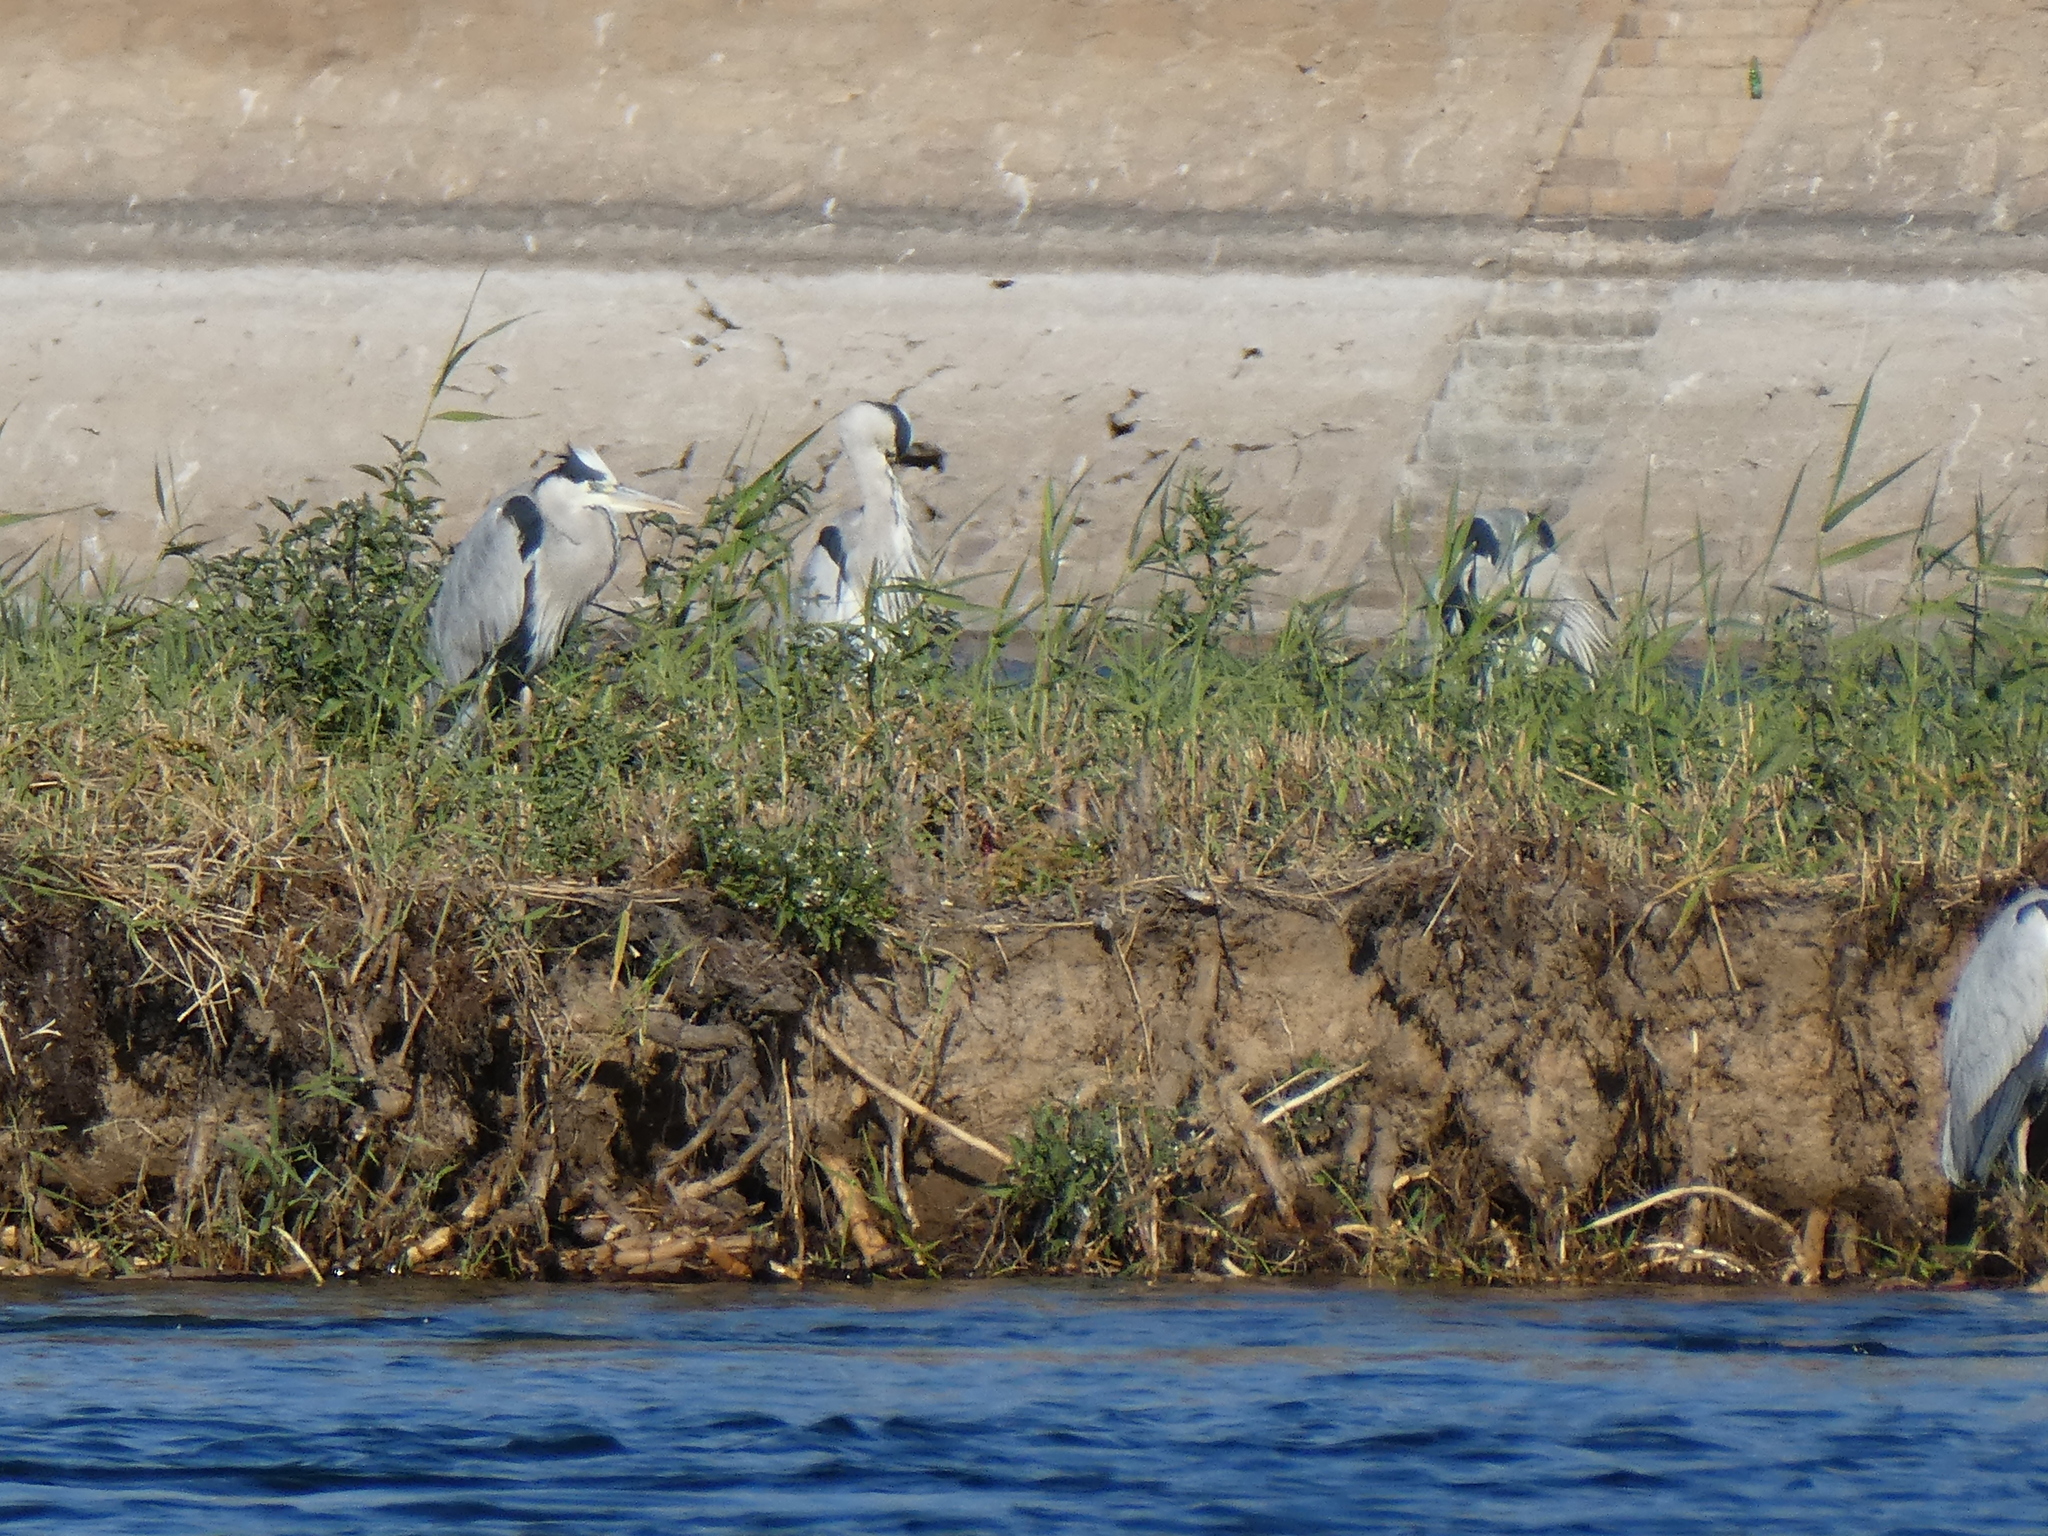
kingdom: Animalia
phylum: Chordata
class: Aves
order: Pelecaniformes
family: Ardeidae
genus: Ardea
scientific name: Ardea cinerea
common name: Grey heron
